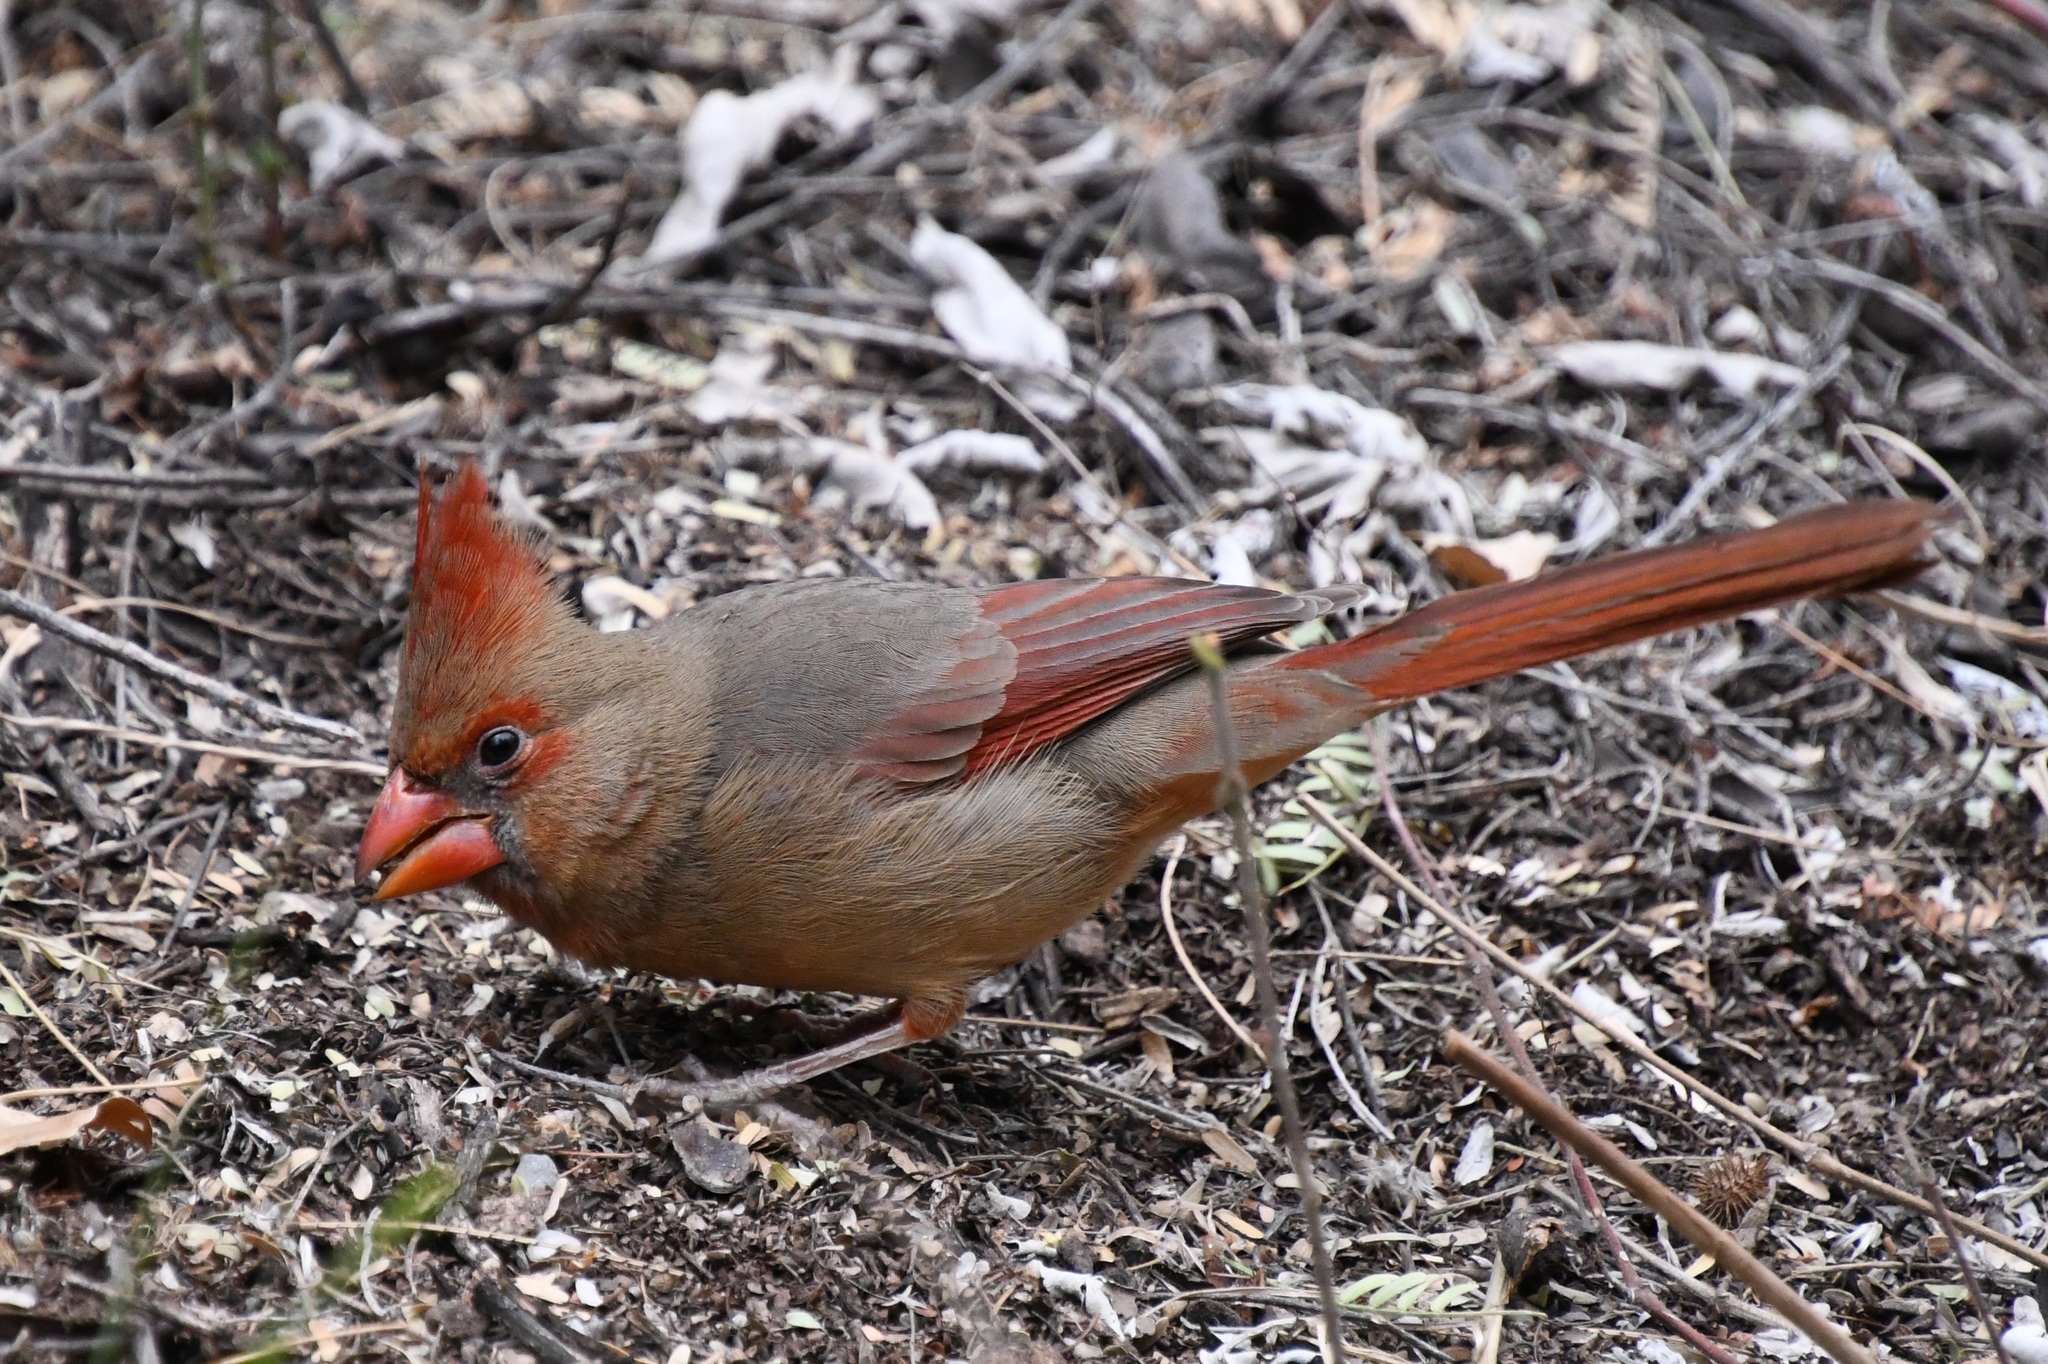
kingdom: Animalia
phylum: Chordata
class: Aves
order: Passeriformes
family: Cardinalidae
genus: Cardinalis
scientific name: Cardinalis cardinalis
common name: Northern cardinal
